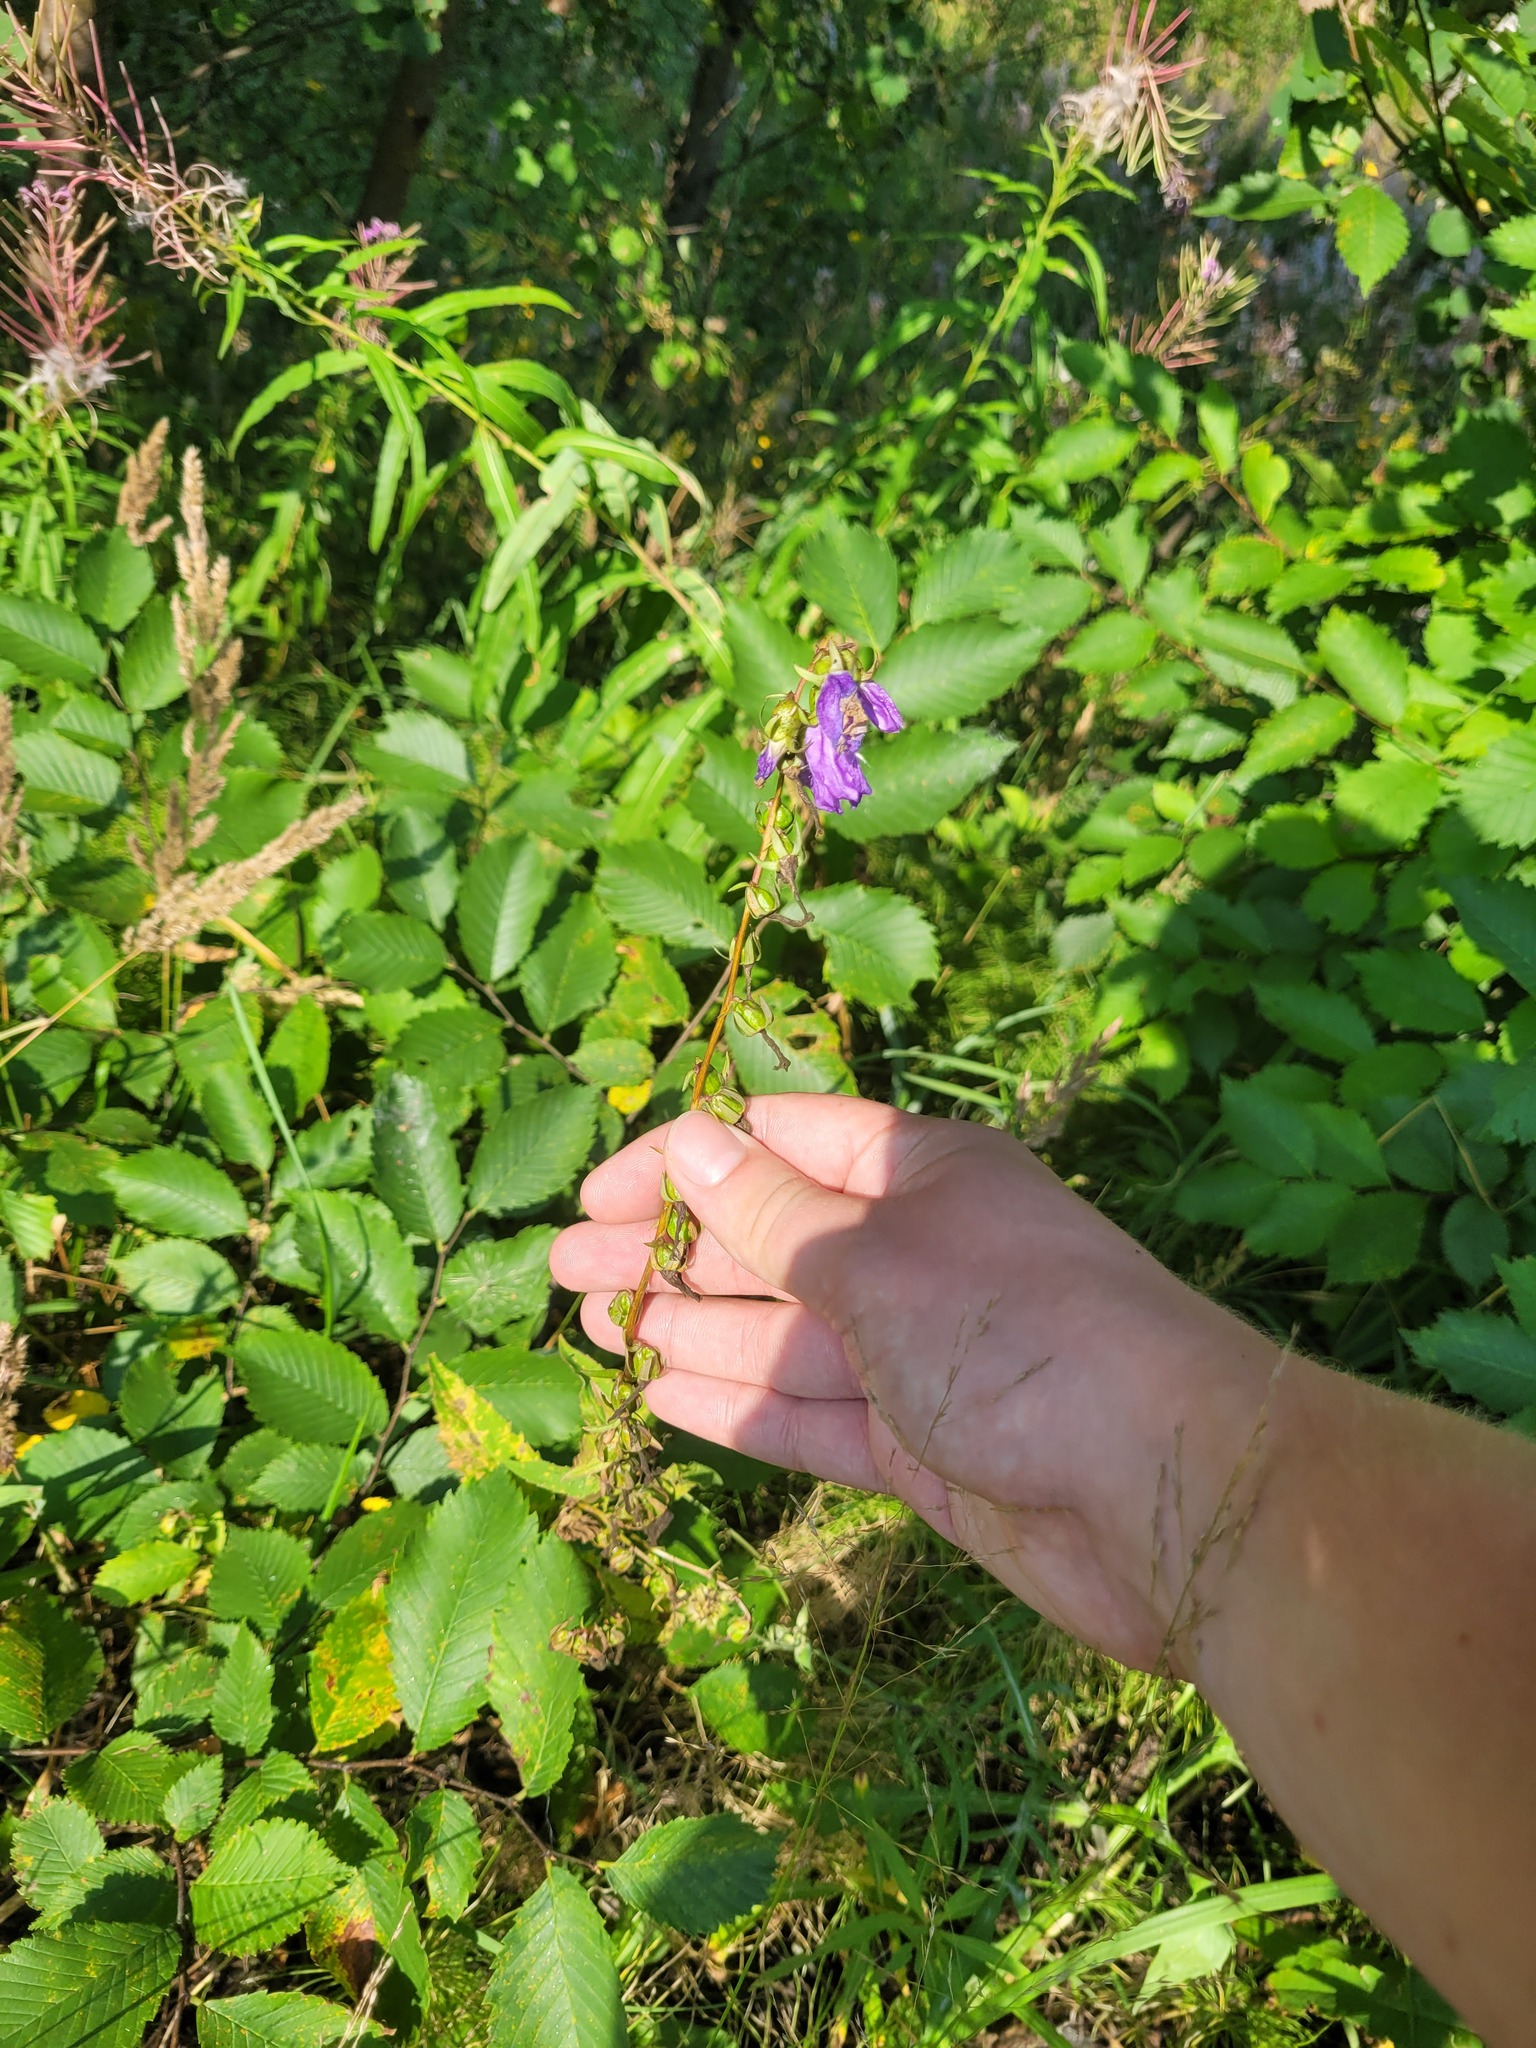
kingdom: Plantae
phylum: Tracheophyta
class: Magnoliopsida
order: Asterales
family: Campanulaceae
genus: Campanula
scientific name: Campanula rapunculoides
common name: Creeping bellflower
